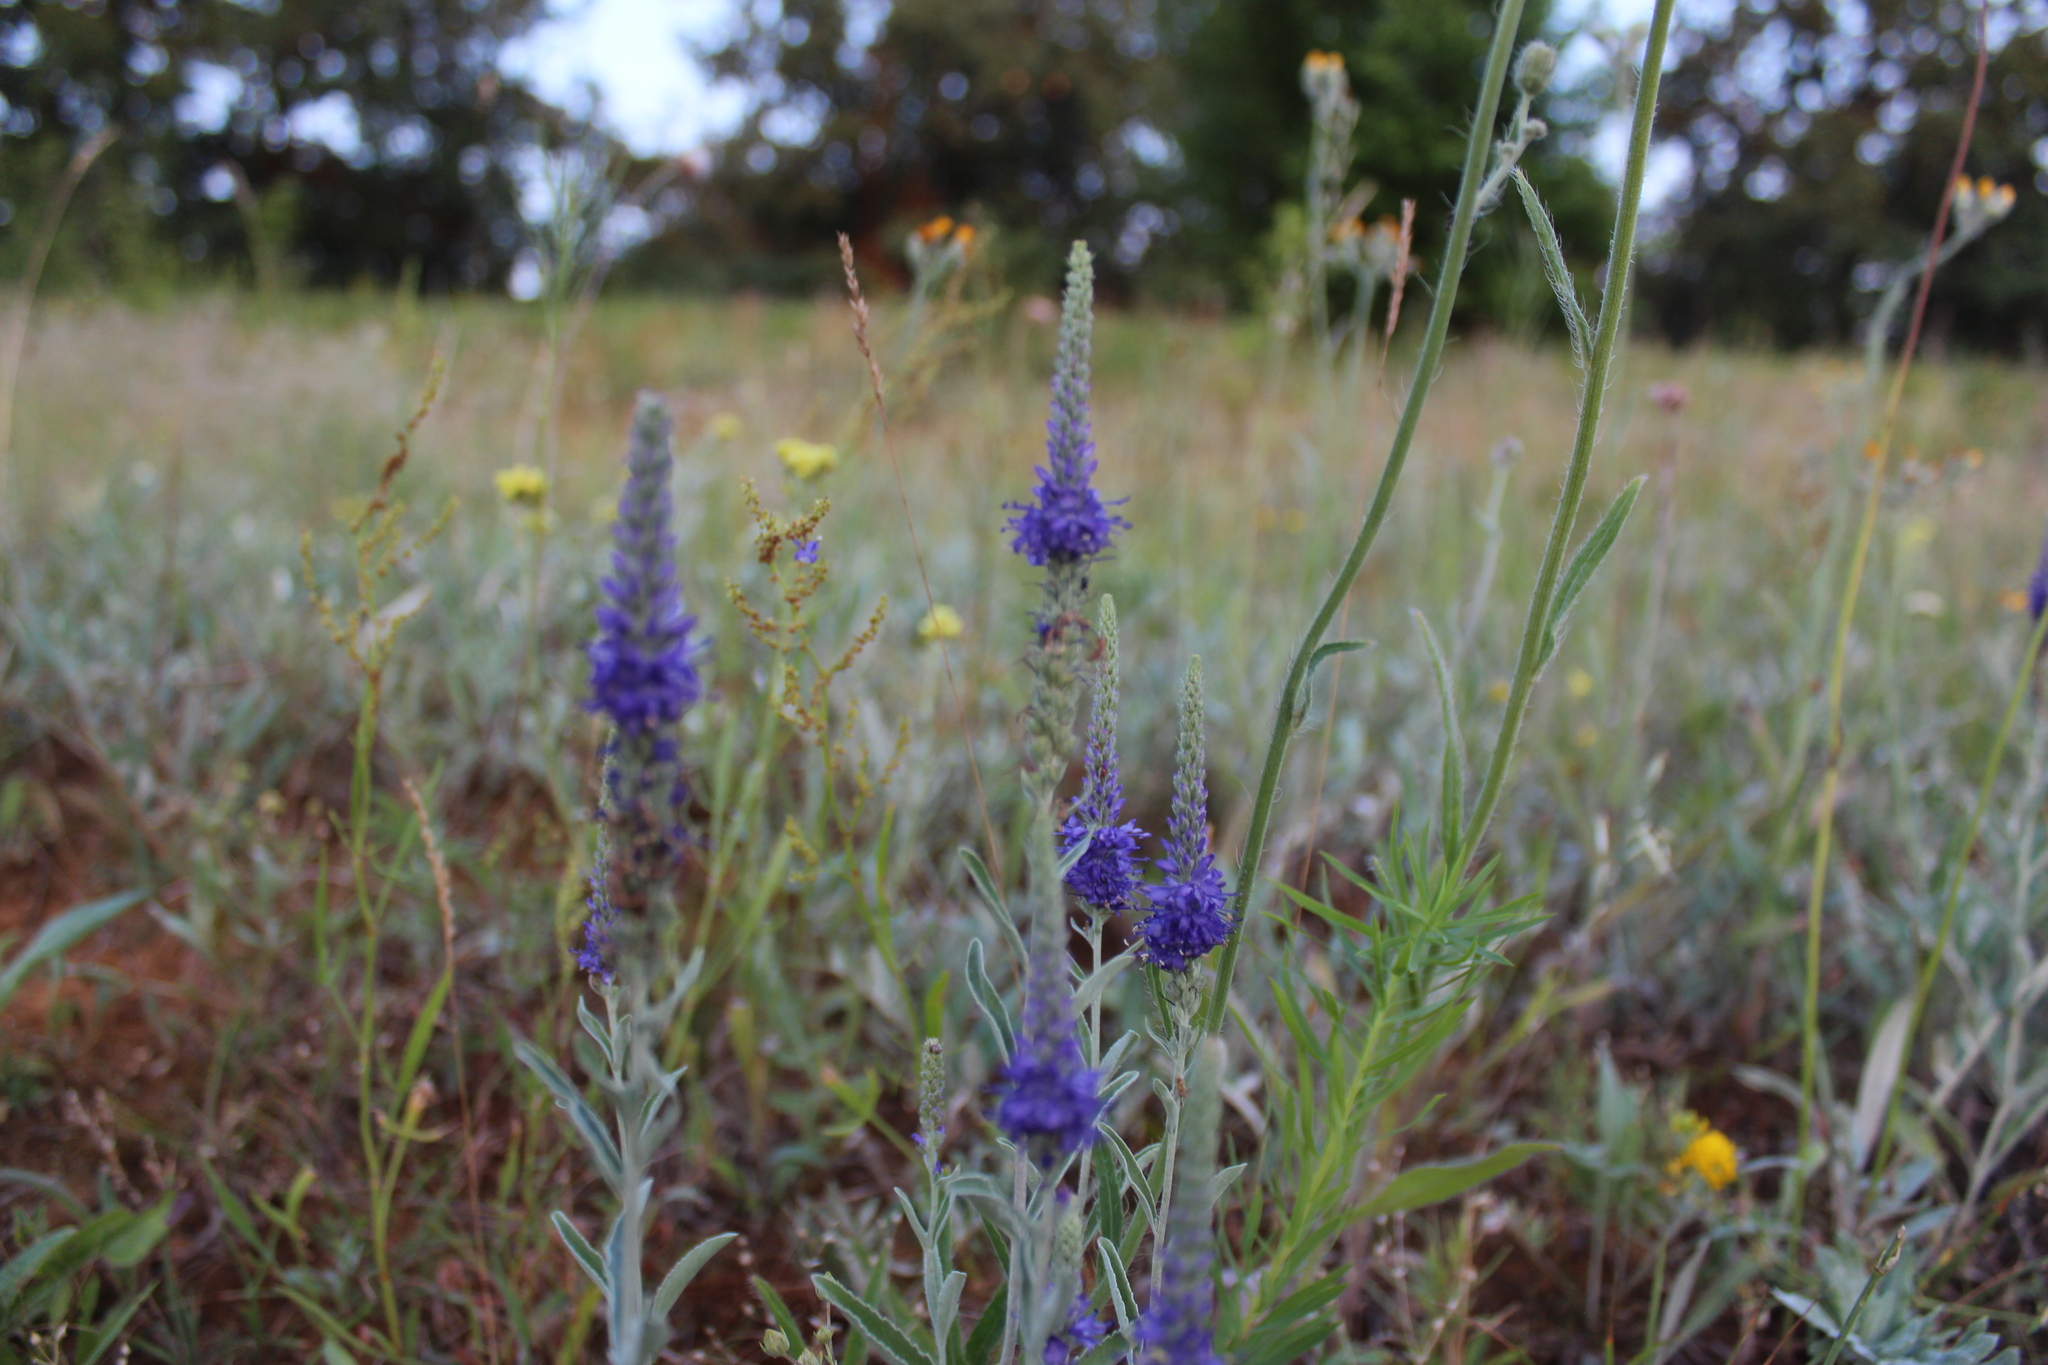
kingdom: Plantae
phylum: Tracheophyta
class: Magnoliopsida
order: Lamiales
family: Plantaginaceae
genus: Veronica
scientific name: Veronica incana
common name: Silver speedwell
